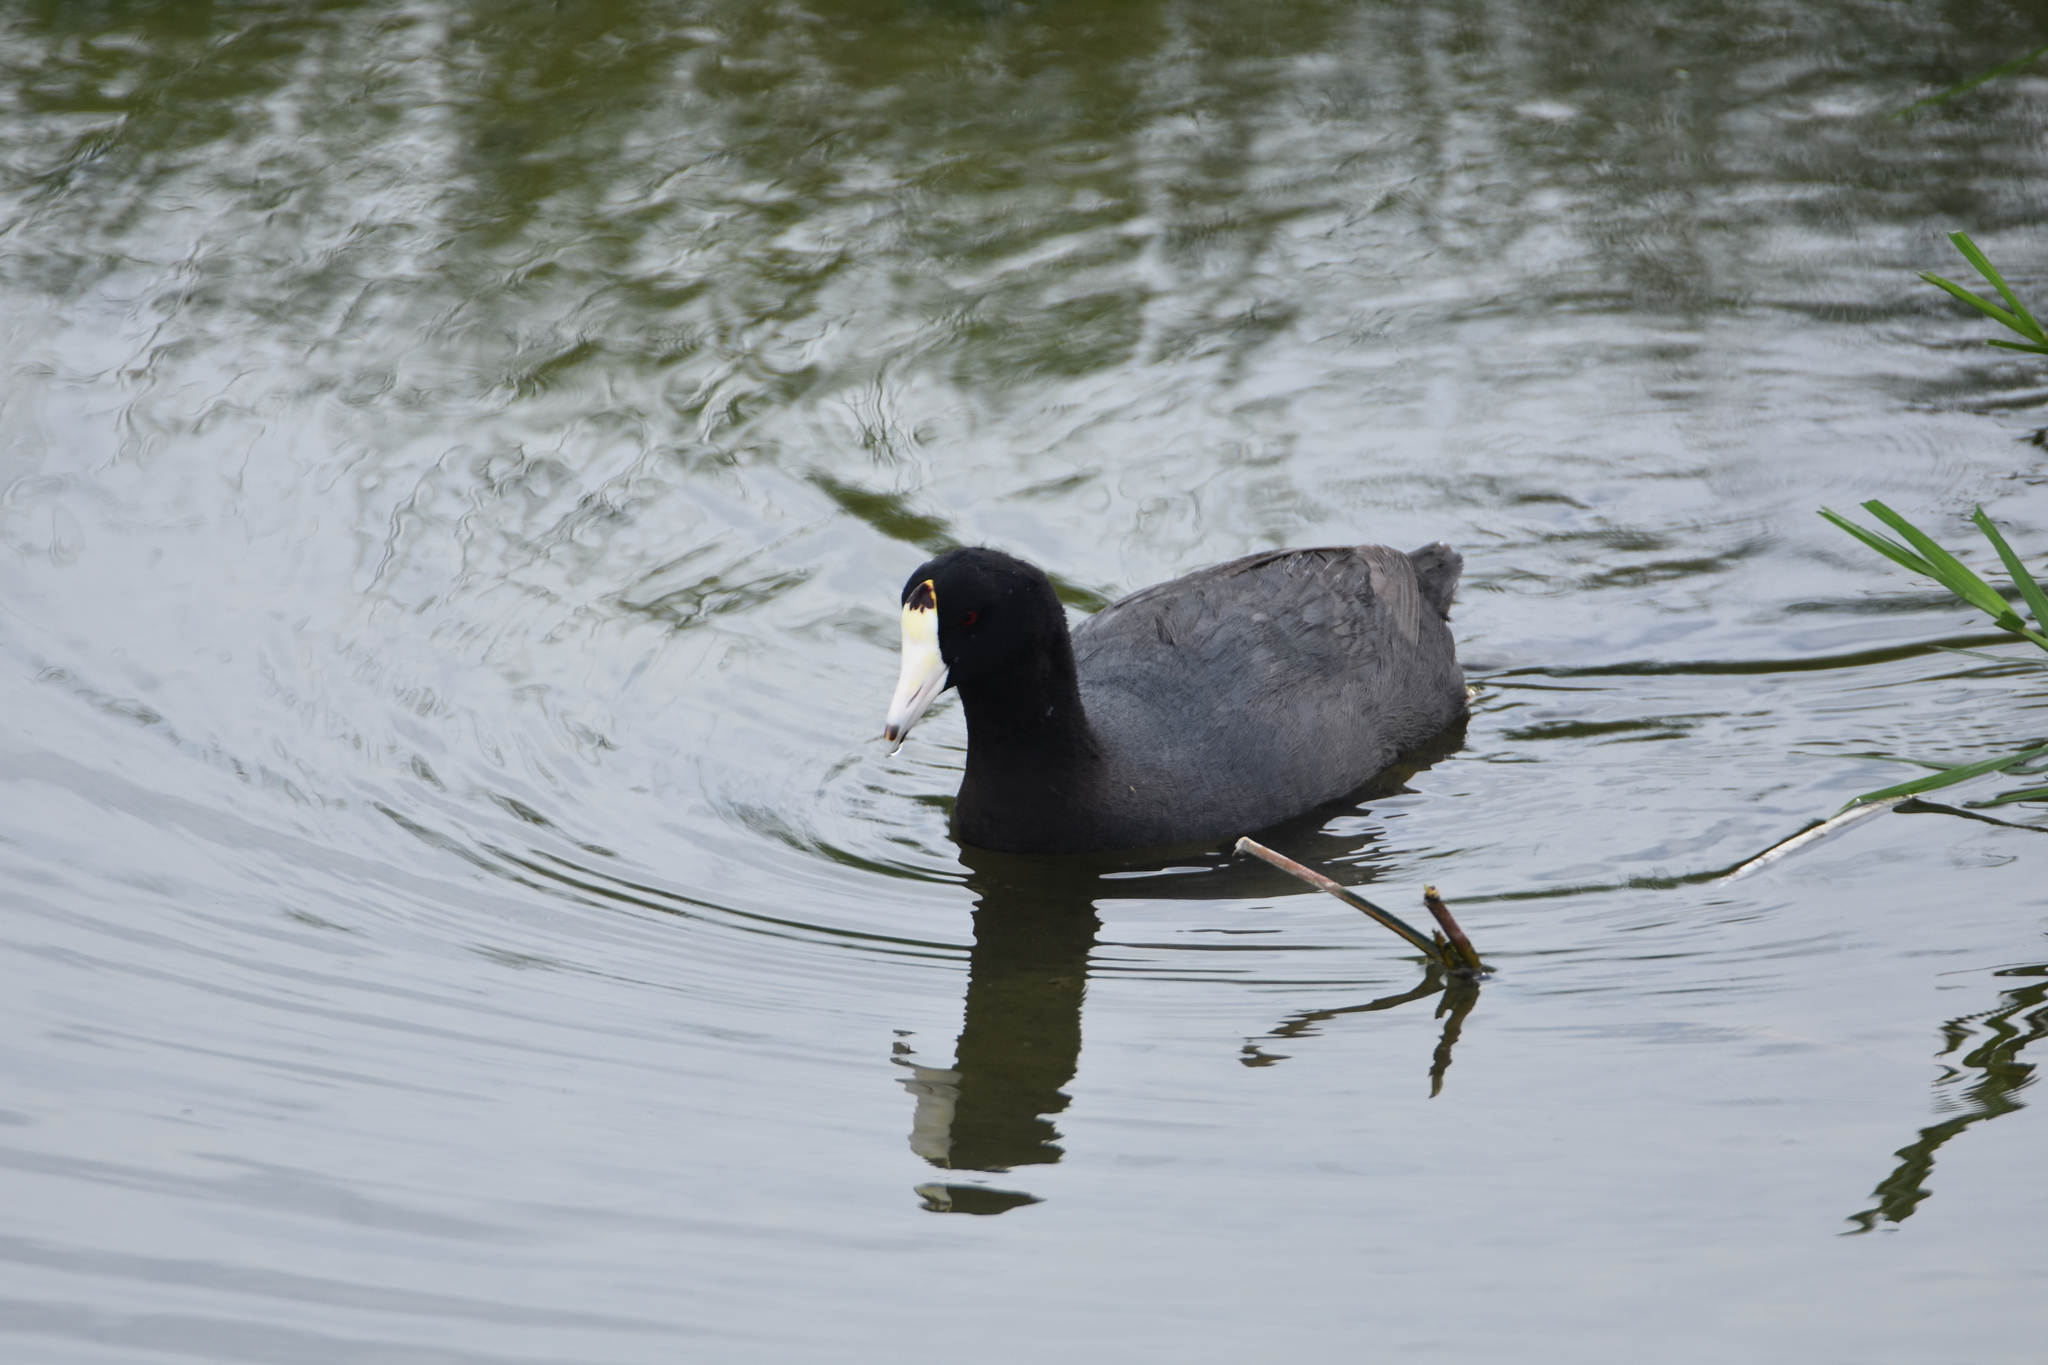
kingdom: Animalia
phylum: Chordata
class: Aves
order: Gruiformes
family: Rallidae
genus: Fulica
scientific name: Fulica americana
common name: American coot
